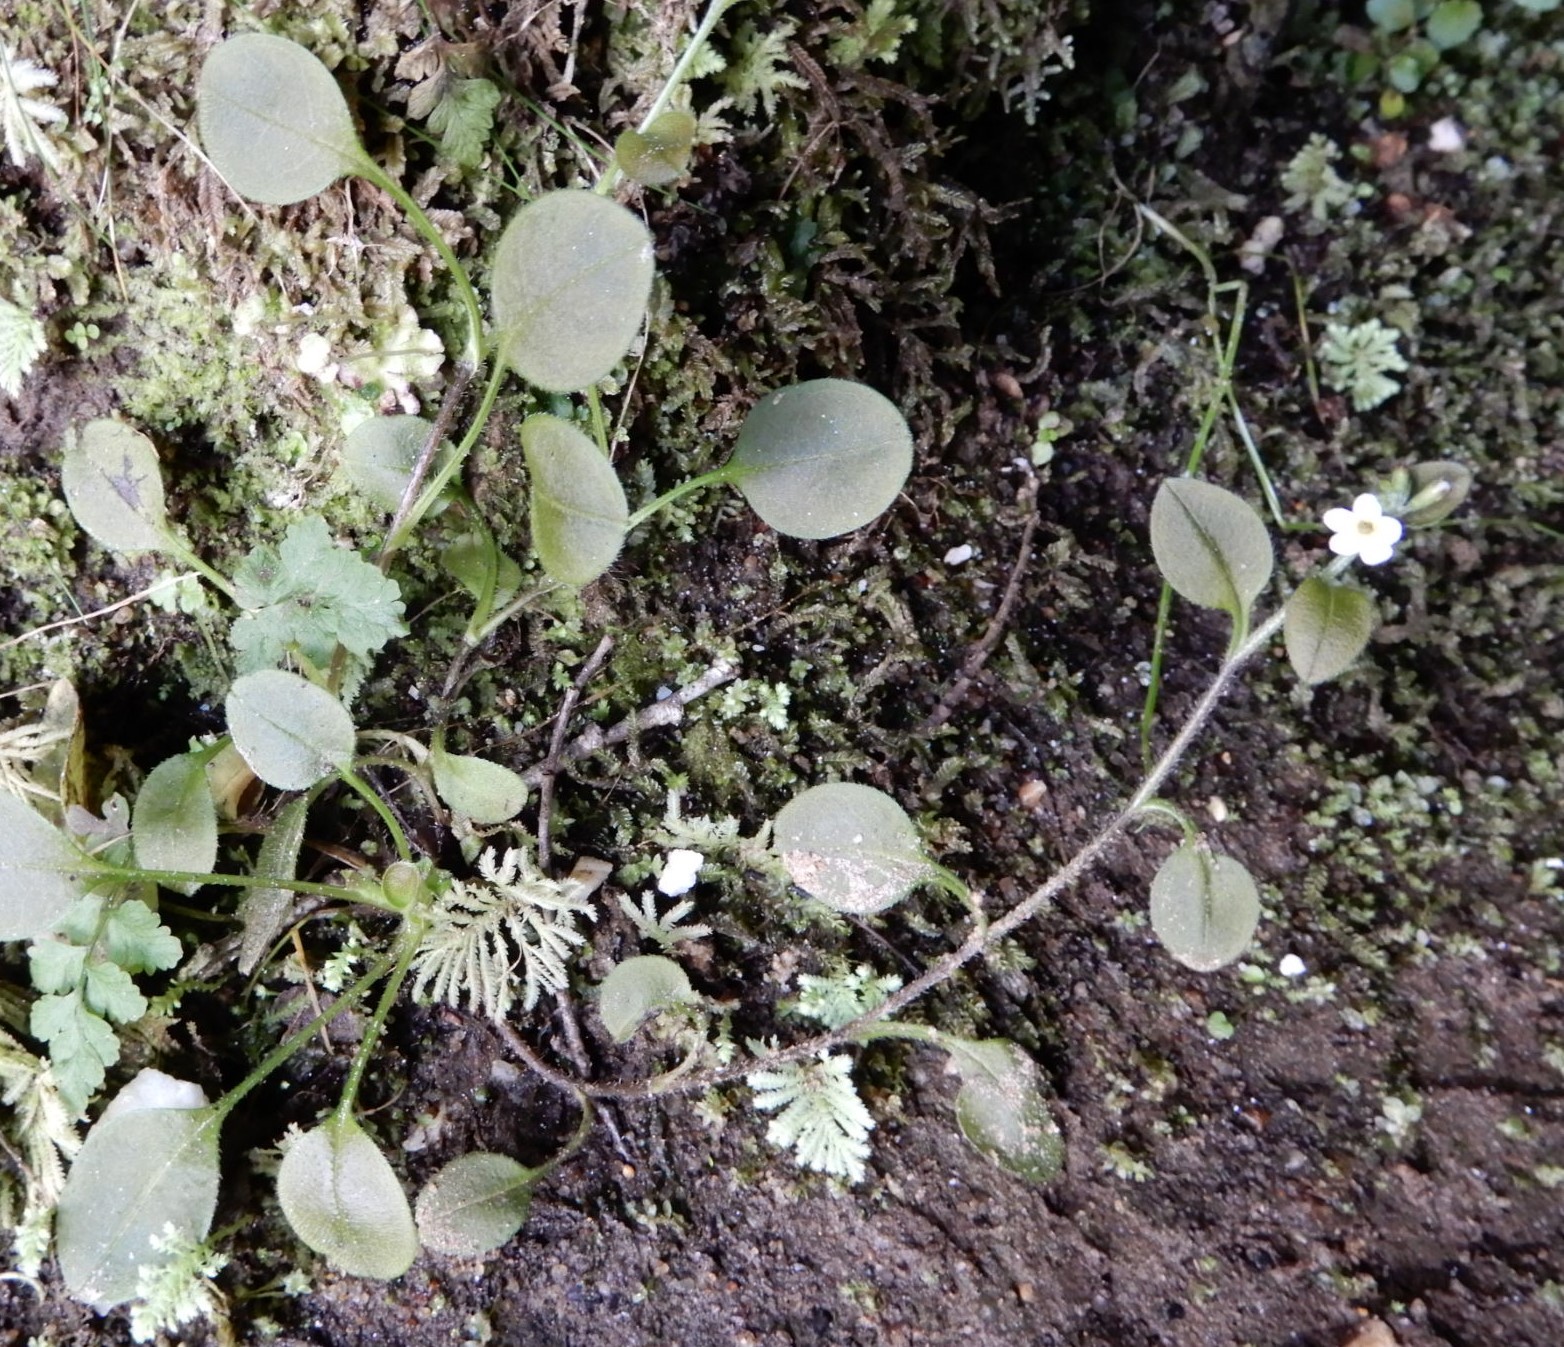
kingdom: Plantae
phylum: Tracheophyta
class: Magnoliopsida
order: Boraginales
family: Boraginaceae
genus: Myosotis
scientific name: Myosotis forsteri
